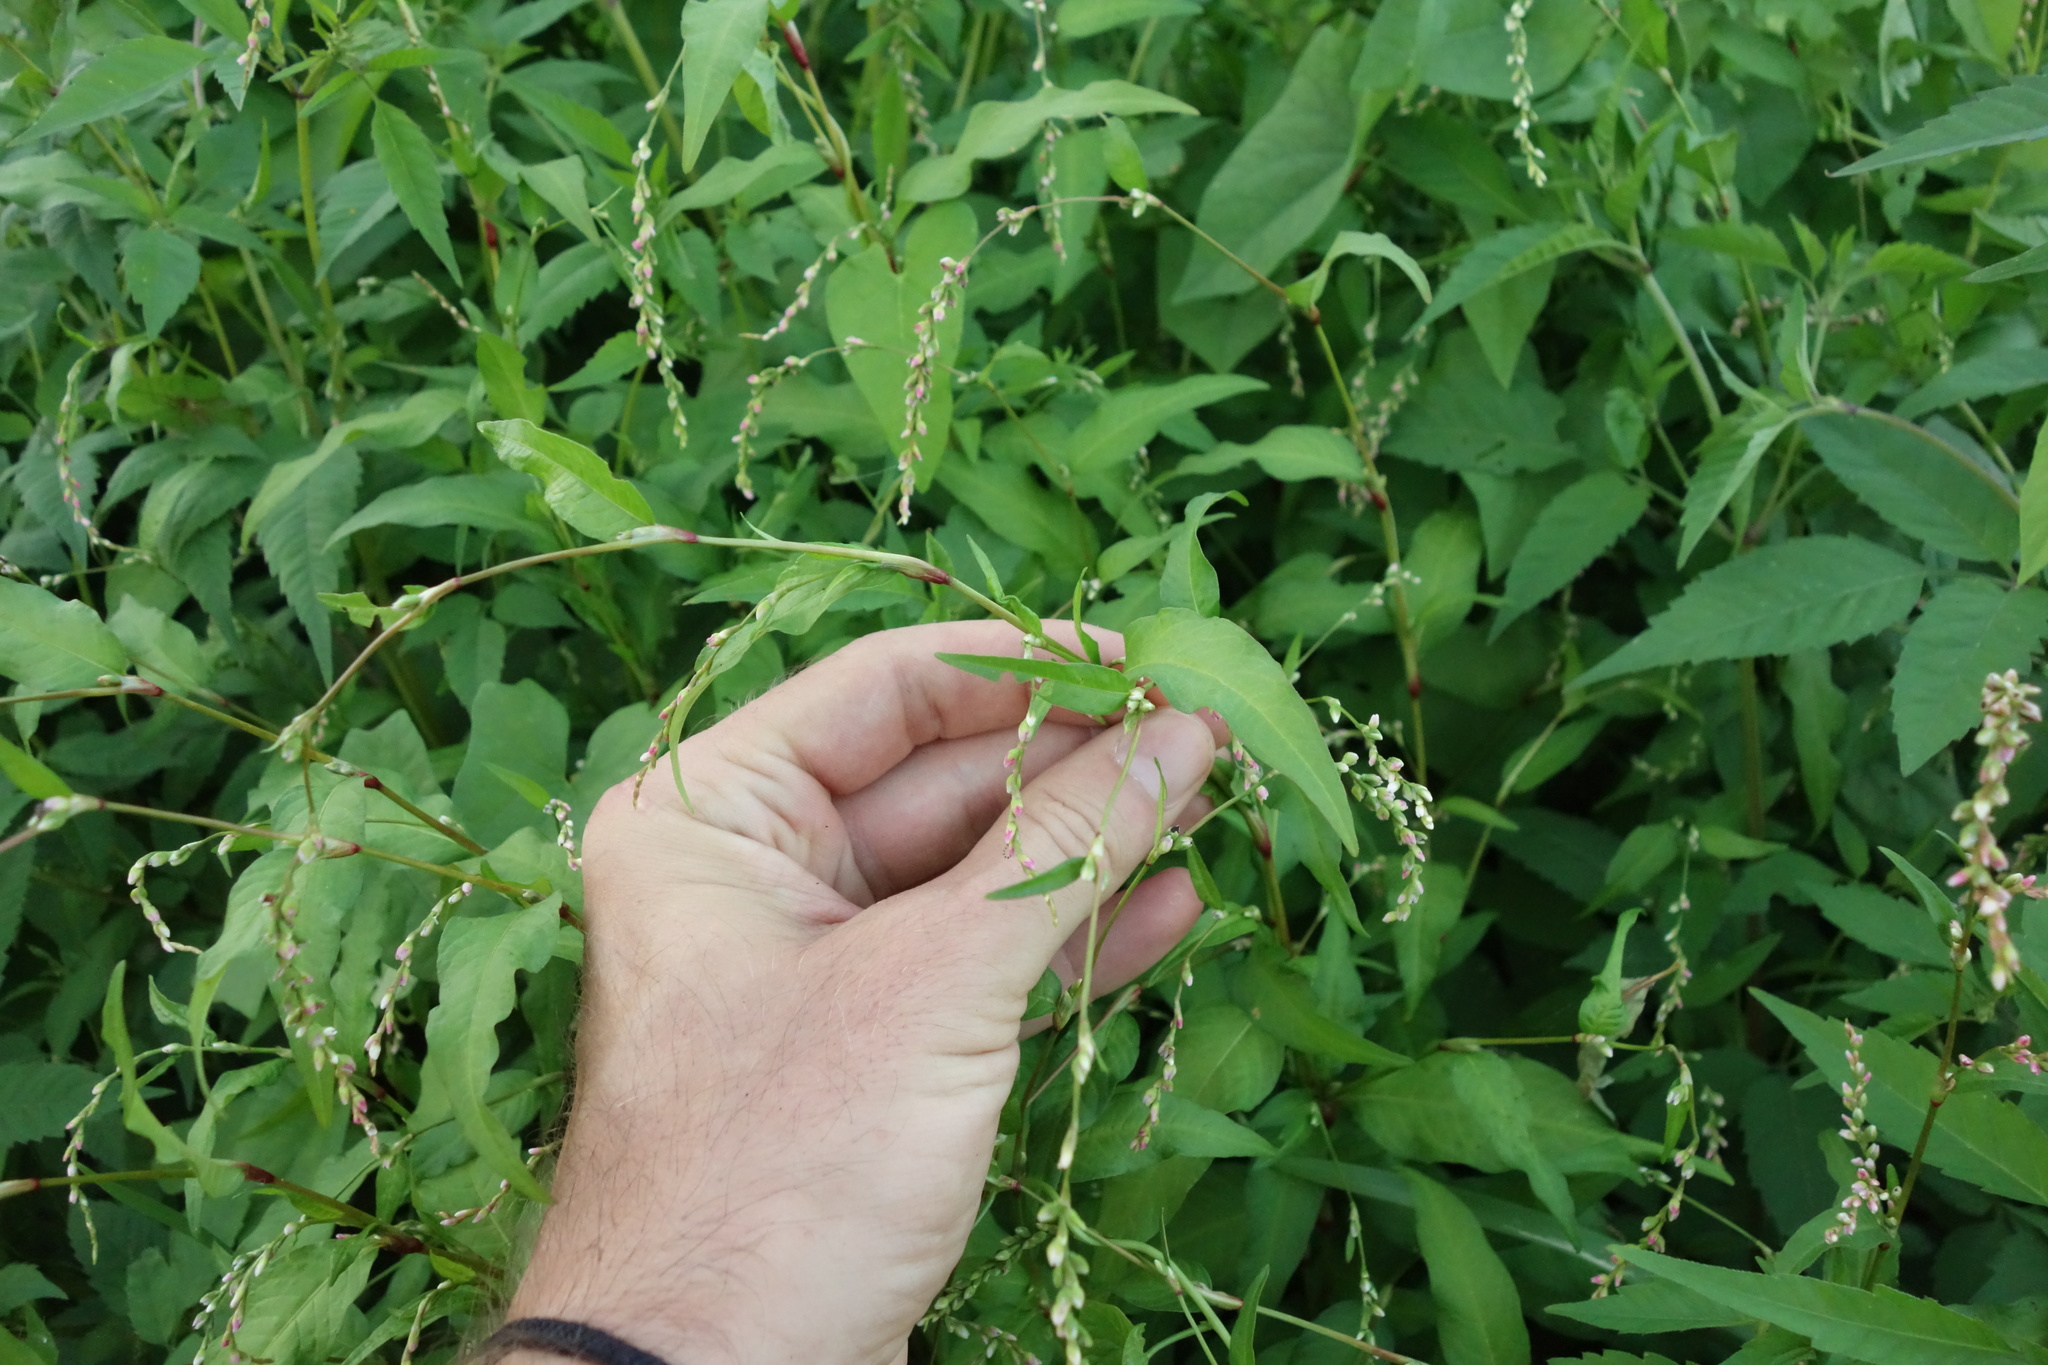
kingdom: Plantae
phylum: Tracheophyta
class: Magnoliopsida
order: Caryophyllales
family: Polygonaceae
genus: Persicaria
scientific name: Persicaria hydropiper
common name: Water-pepper
